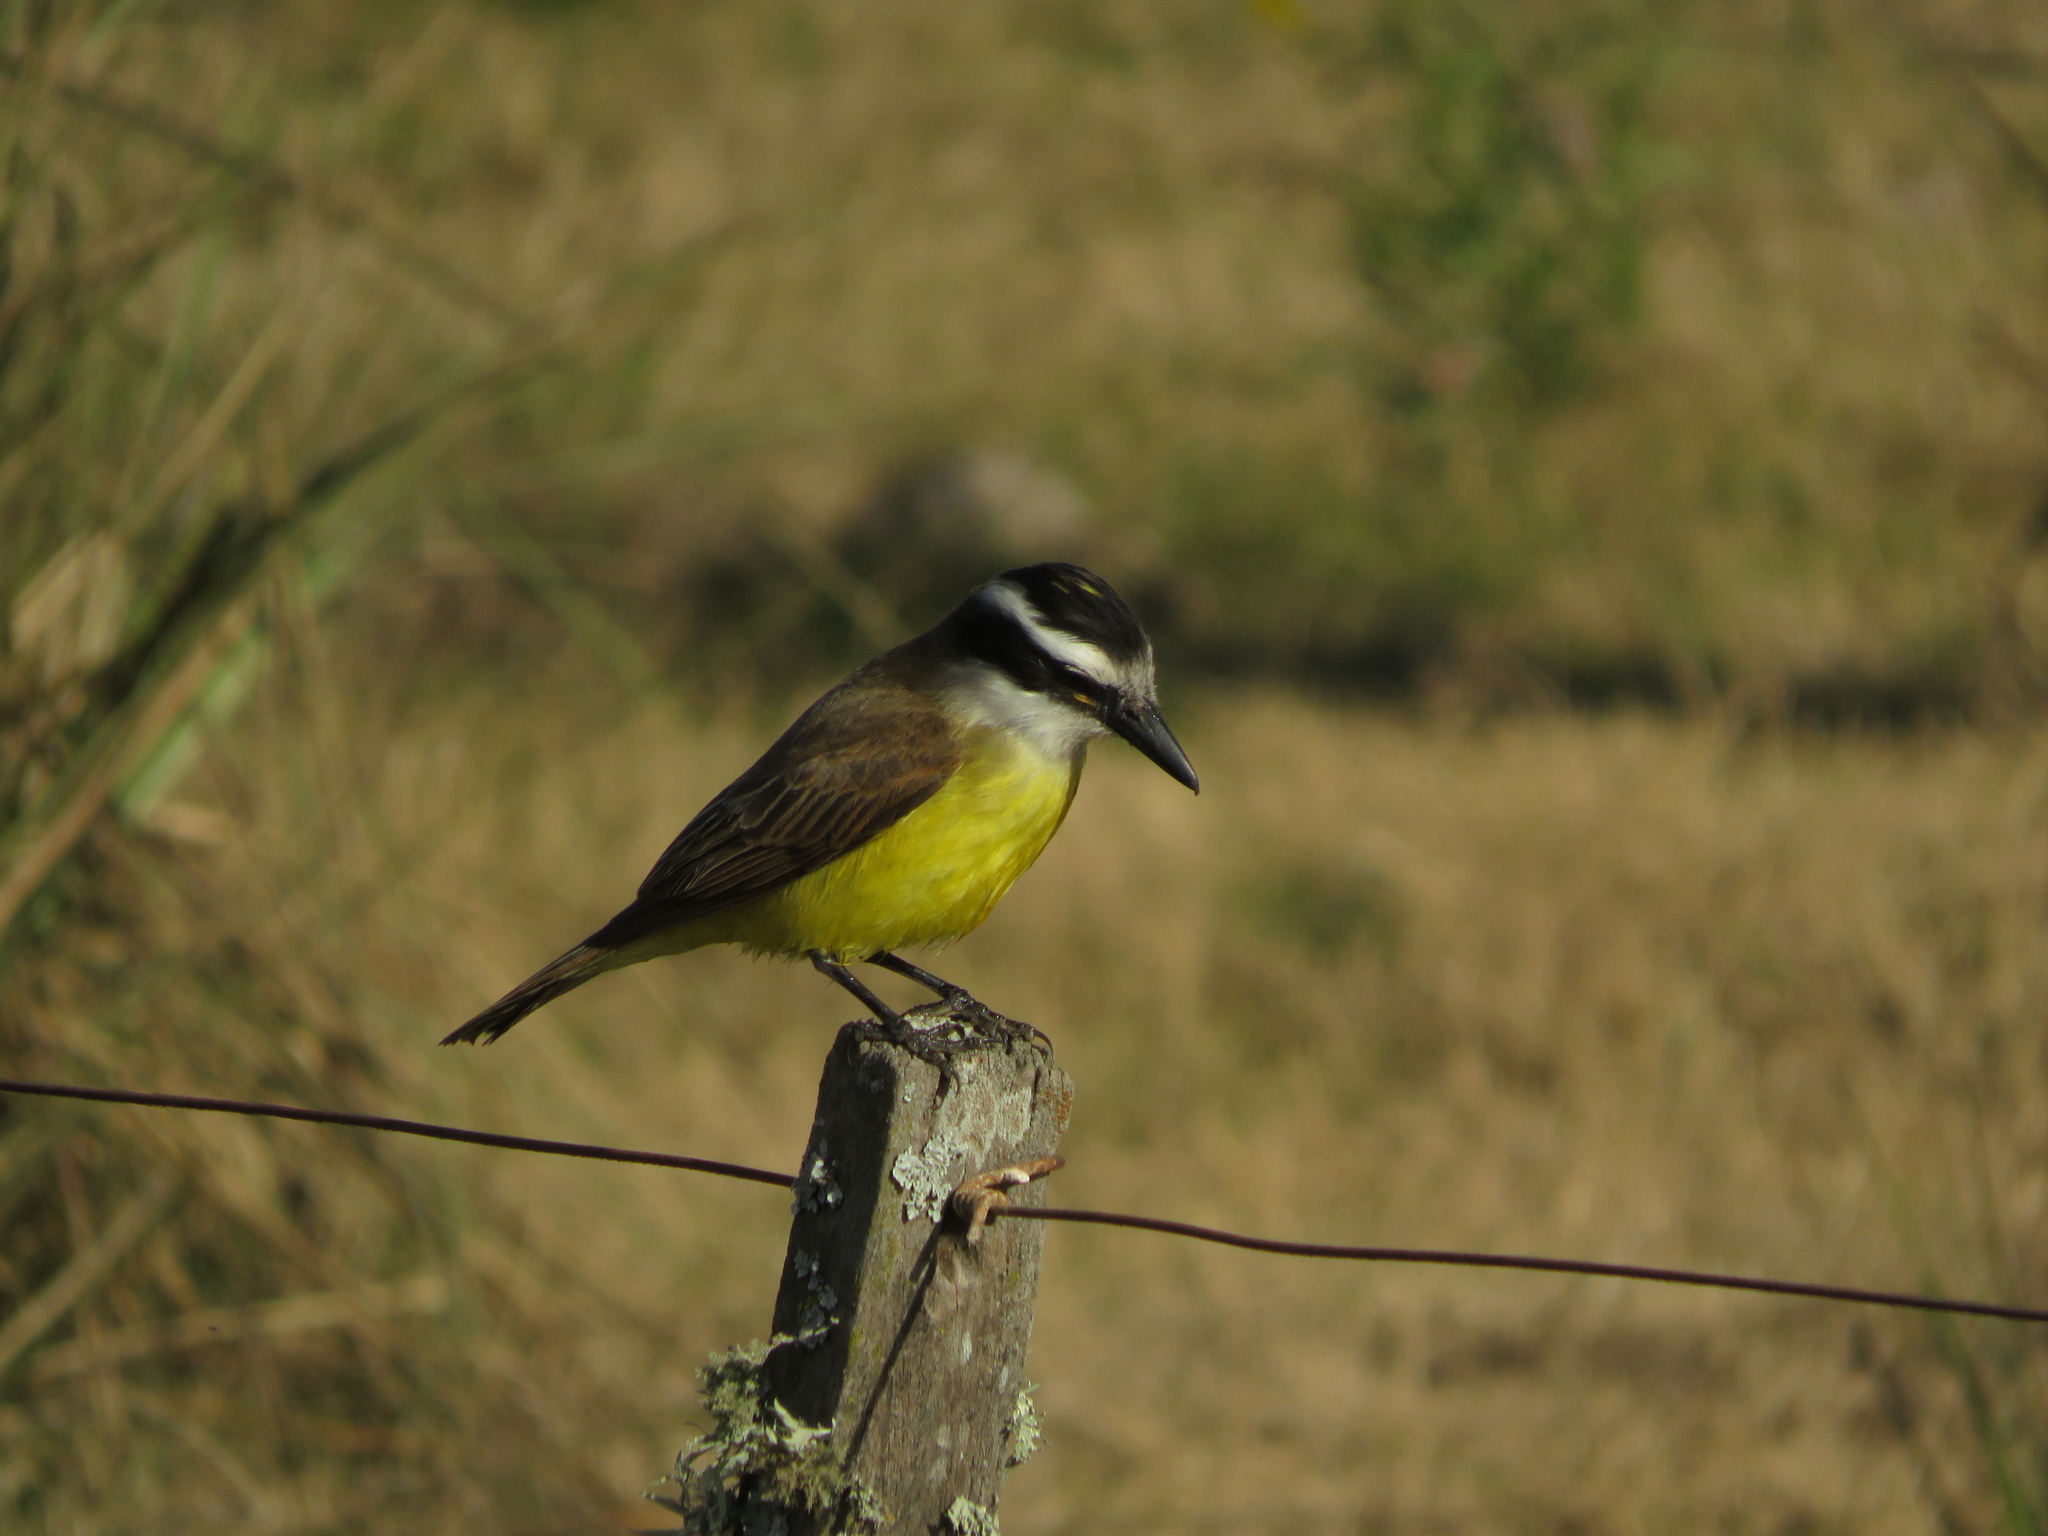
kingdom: Animalia
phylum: Chordata
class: Aves
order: Passeriformes
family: Tyrannidae
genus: Pitangus
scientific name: Pitangus sulphuratus
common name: Great kiskadee
